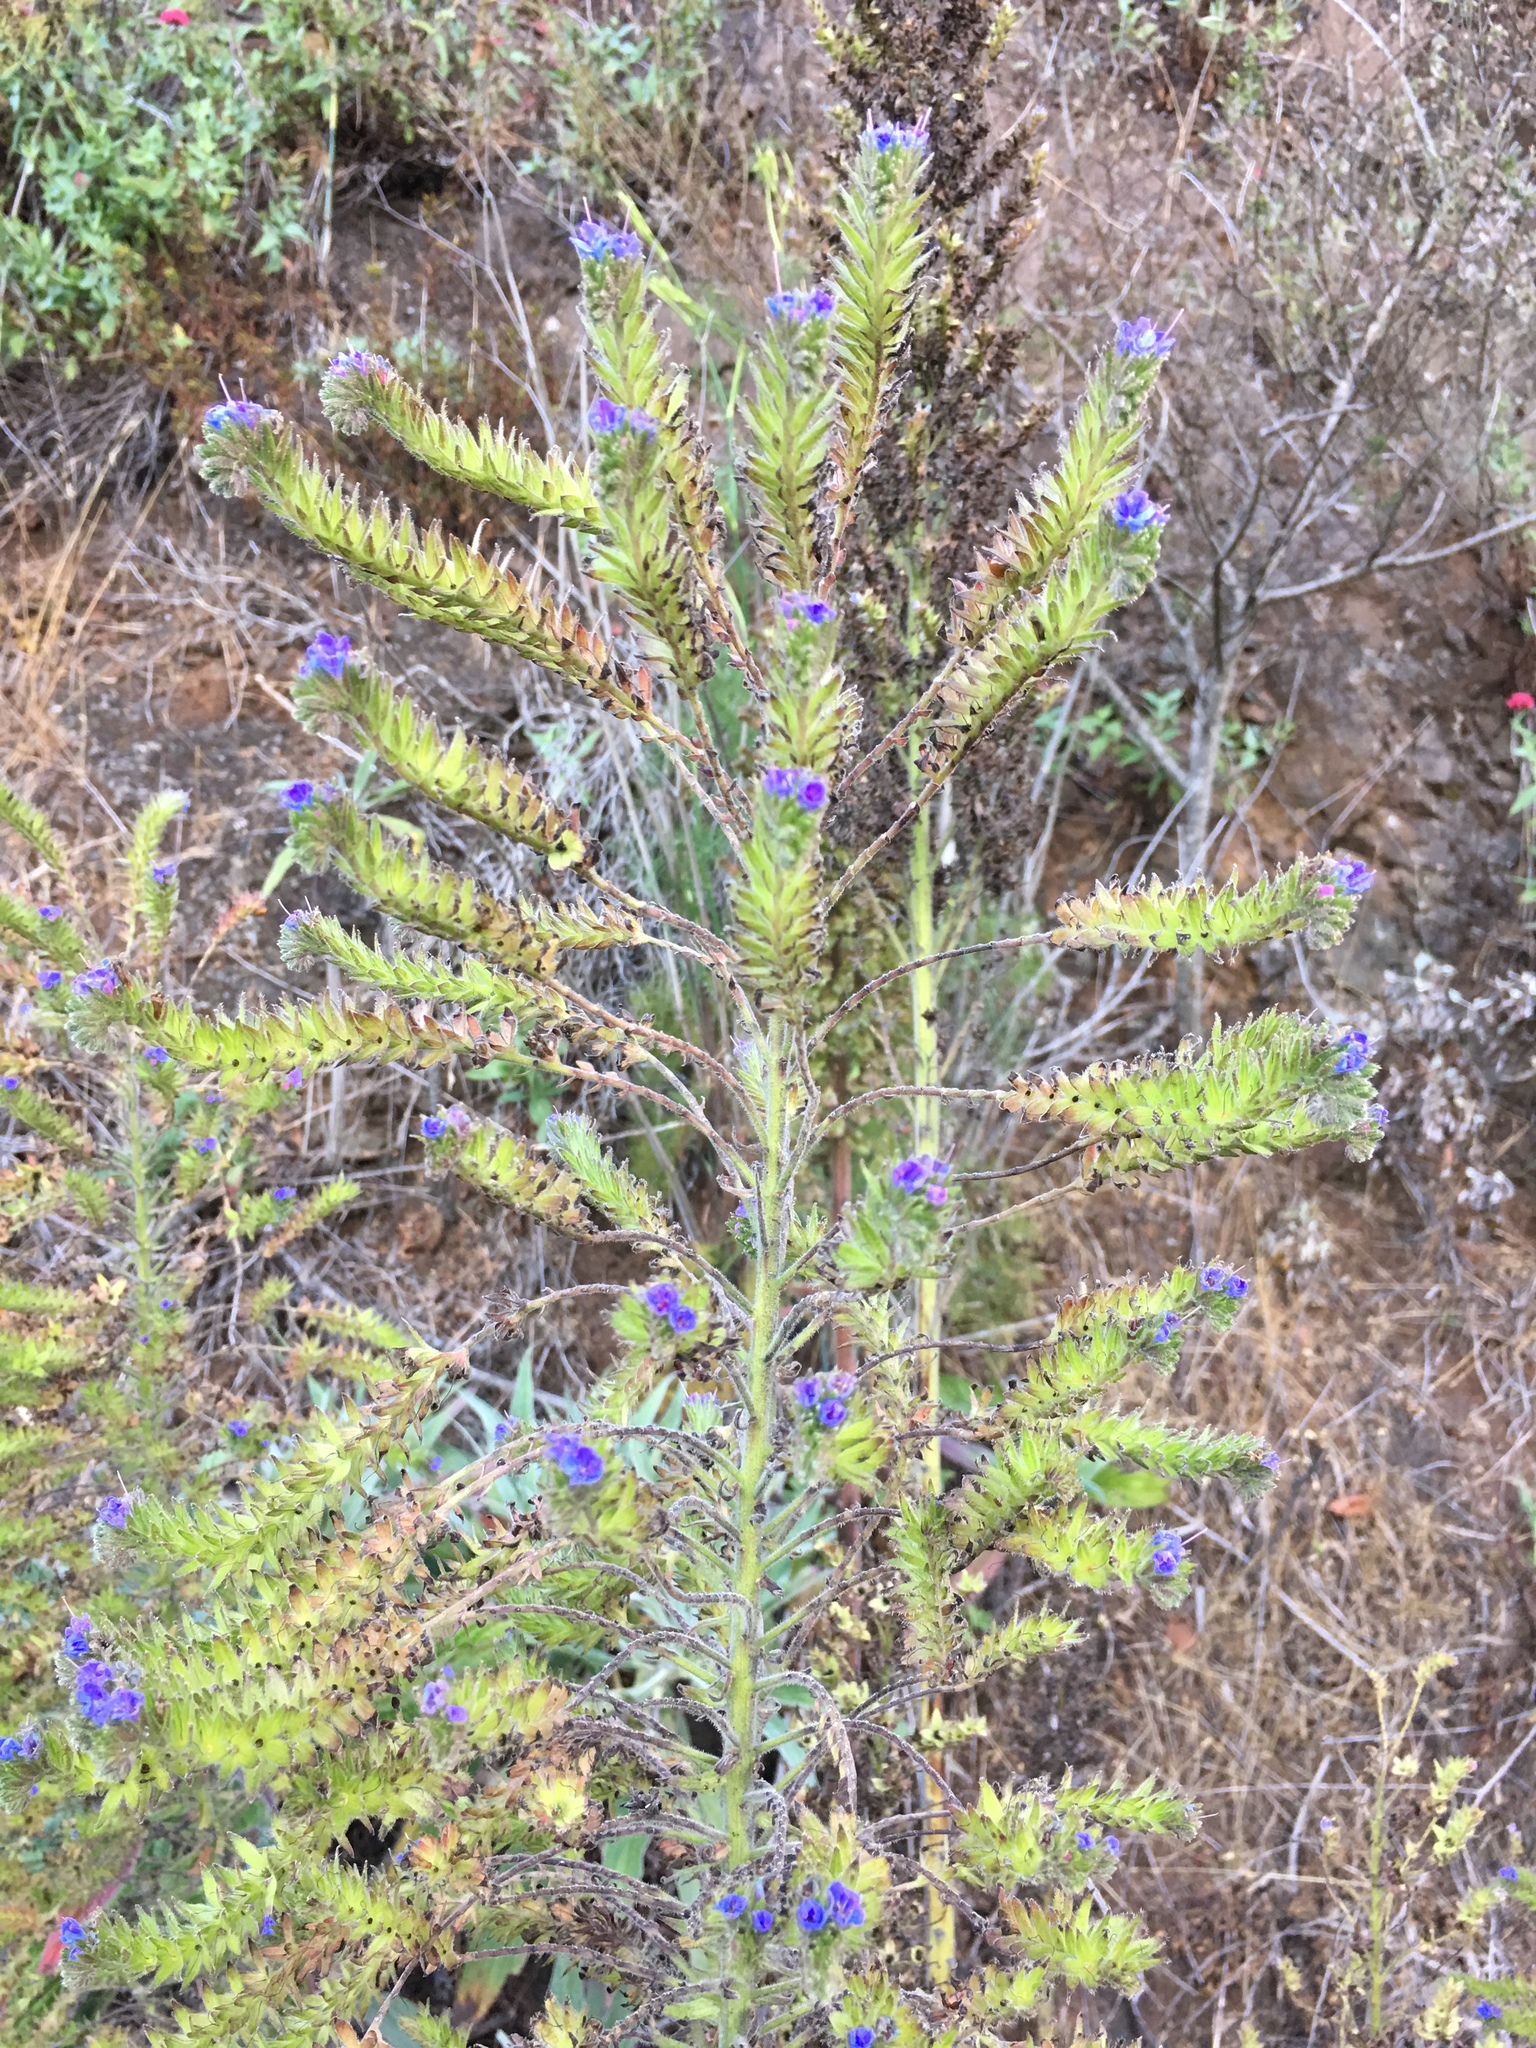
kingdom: Plantae
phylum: Tracheophyta
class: Magnoliopsida
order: Boraginales
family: Boraginaceae
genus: Echium
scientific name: Echium candicans
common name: Pride of madeira
